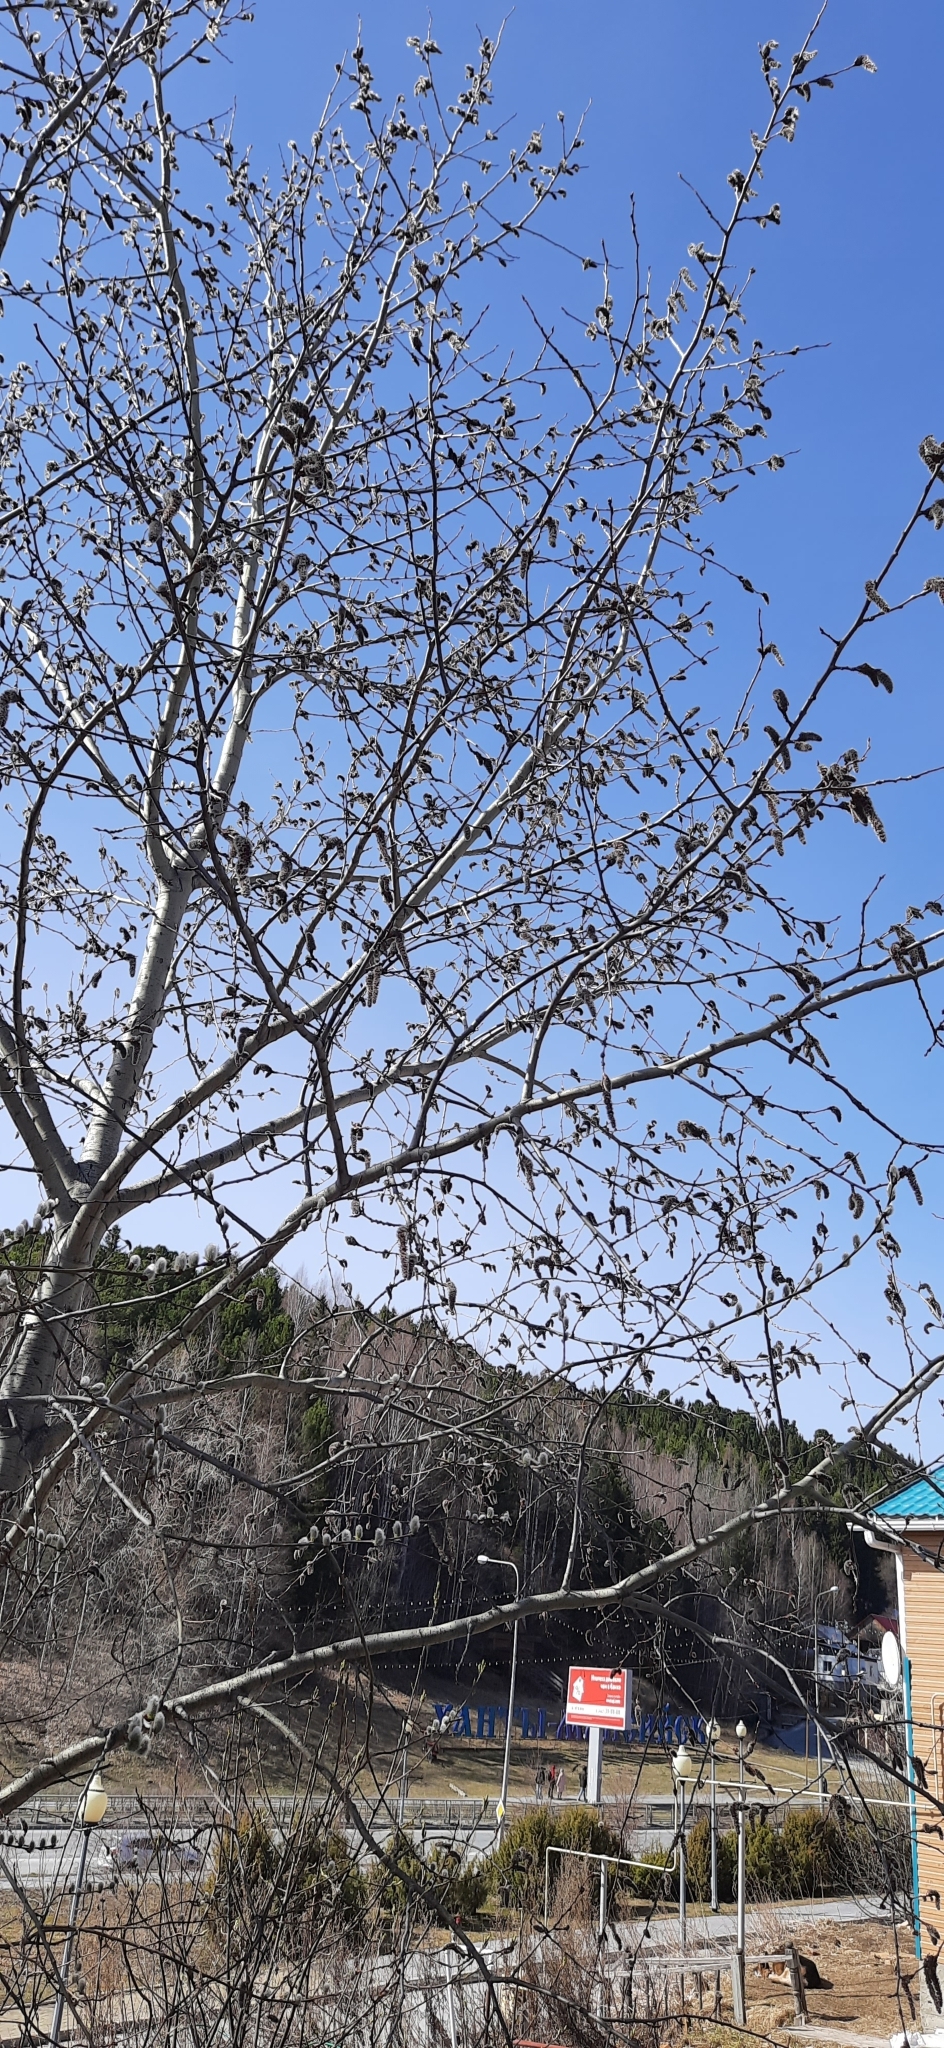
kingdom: Plantae
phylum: Tracheophyta
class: Magnoliopsida
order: Malpighiales
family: Salicaceae
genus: Populus
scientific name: Populus tremula
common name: European aspen
